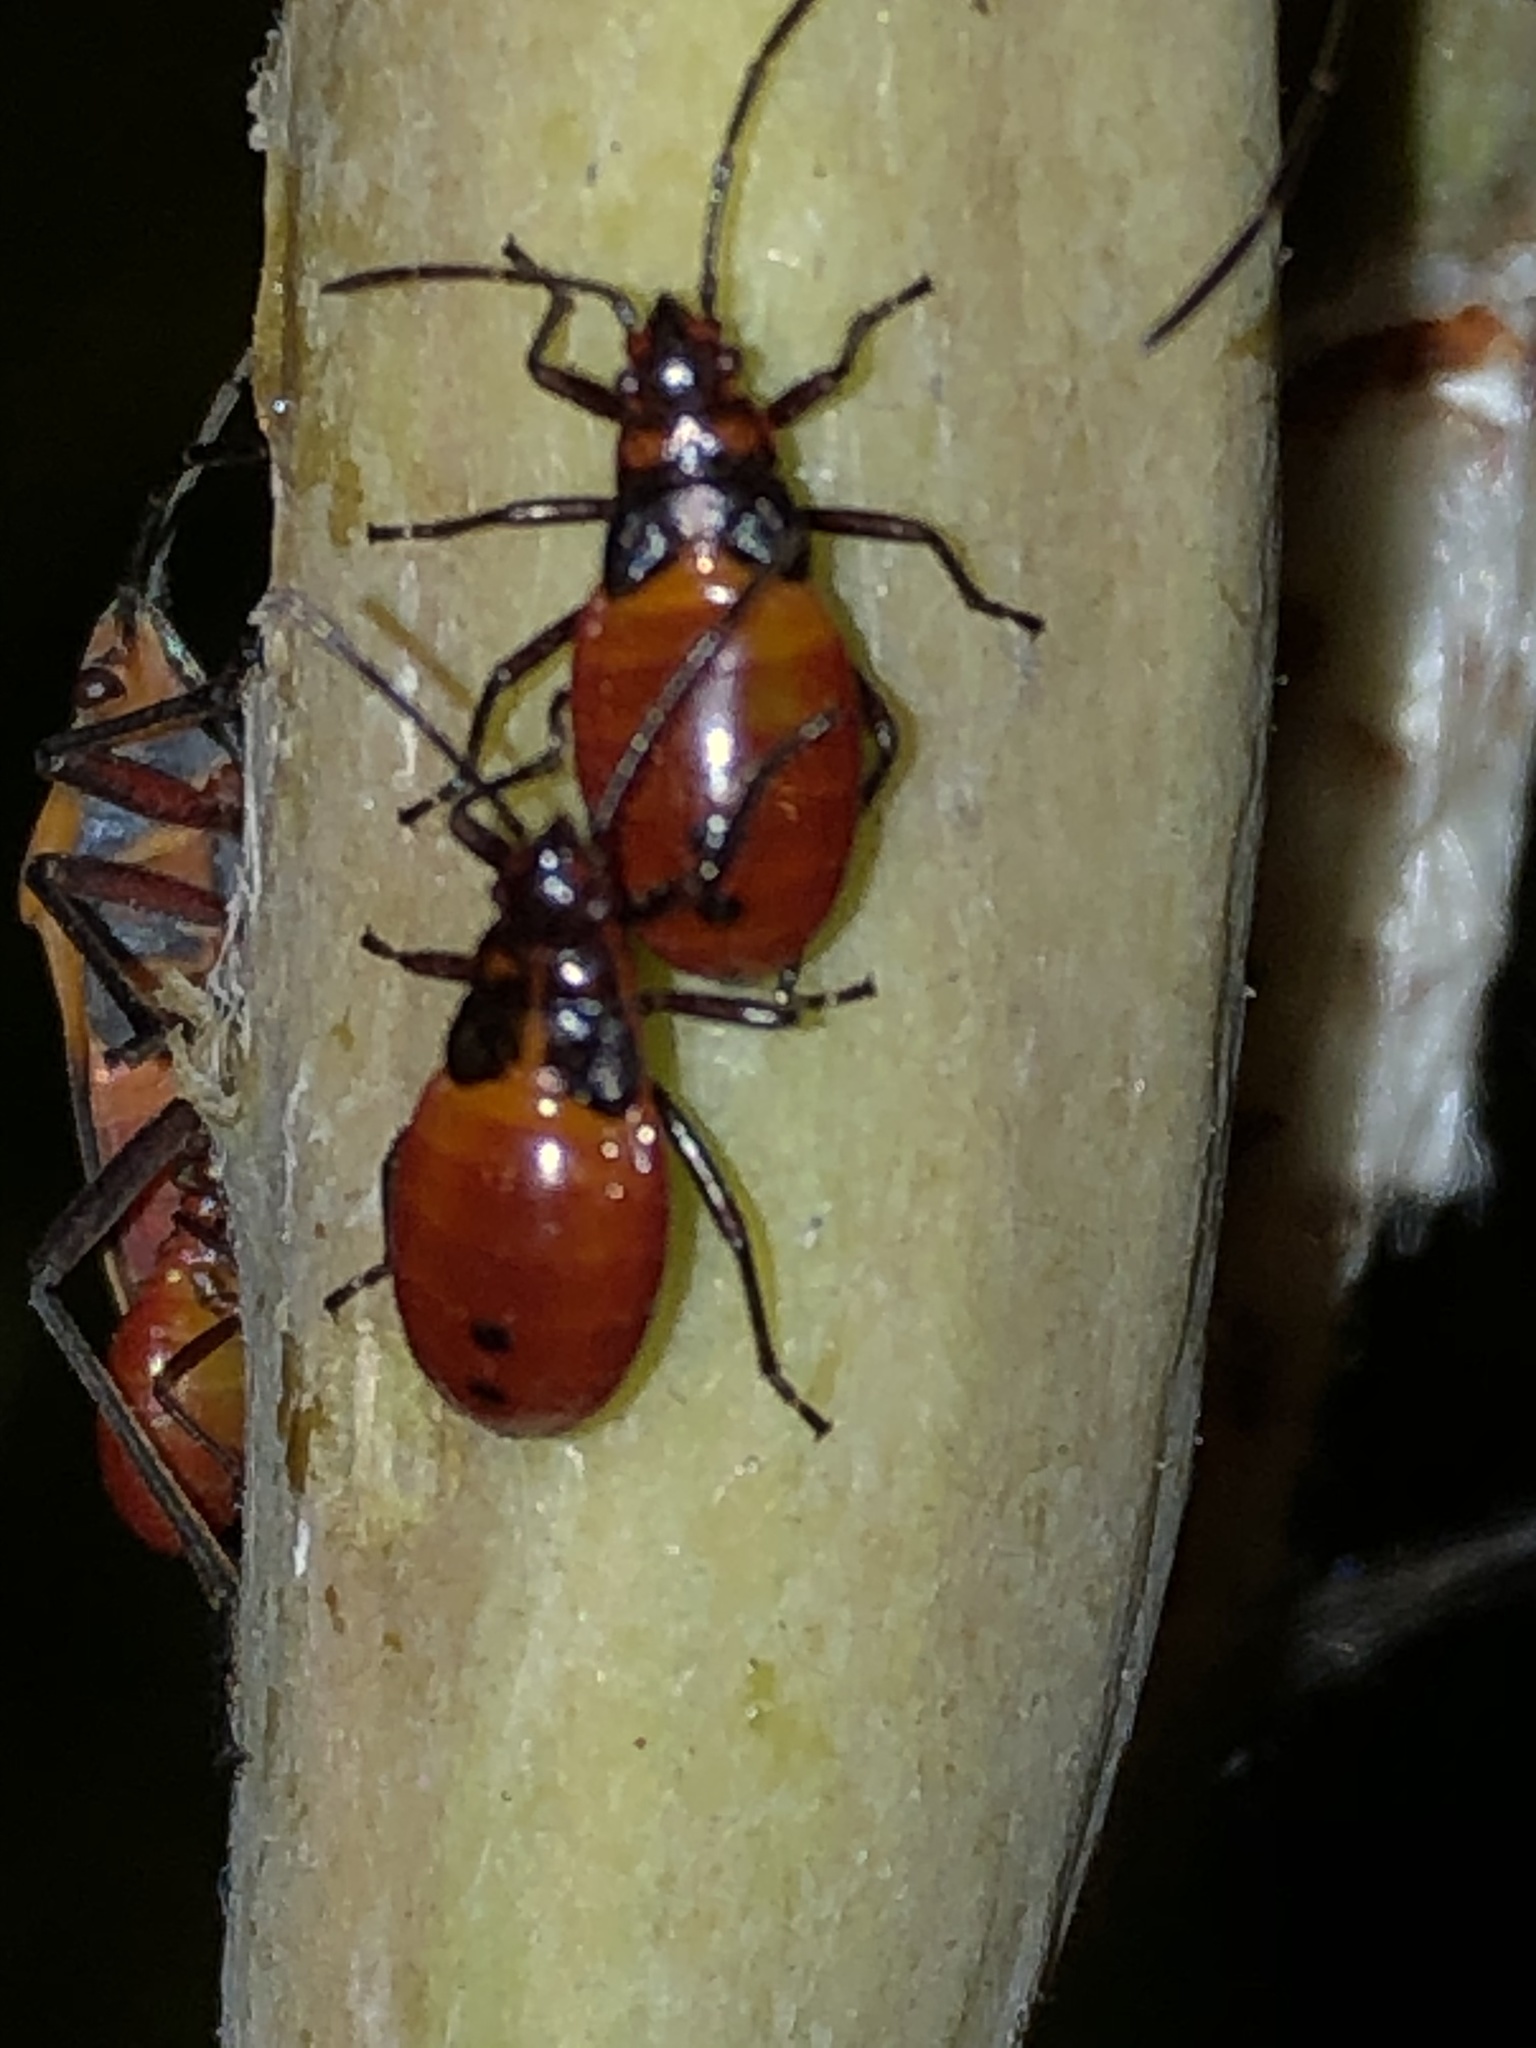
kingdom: Animalia
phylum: Arthropoda
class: Insecta
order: Hemiptera
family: Lygaeidae
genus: Oncopeltus
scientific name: Oncopeltus zonatus
